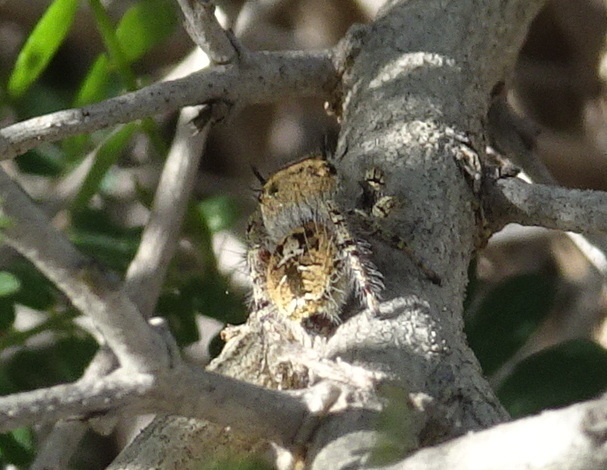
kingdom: Animalia
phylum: Arthropoda
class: Arachnida
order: Araneae
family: Salticidae
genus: Phidippus
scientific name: Phidippus arizonensis
